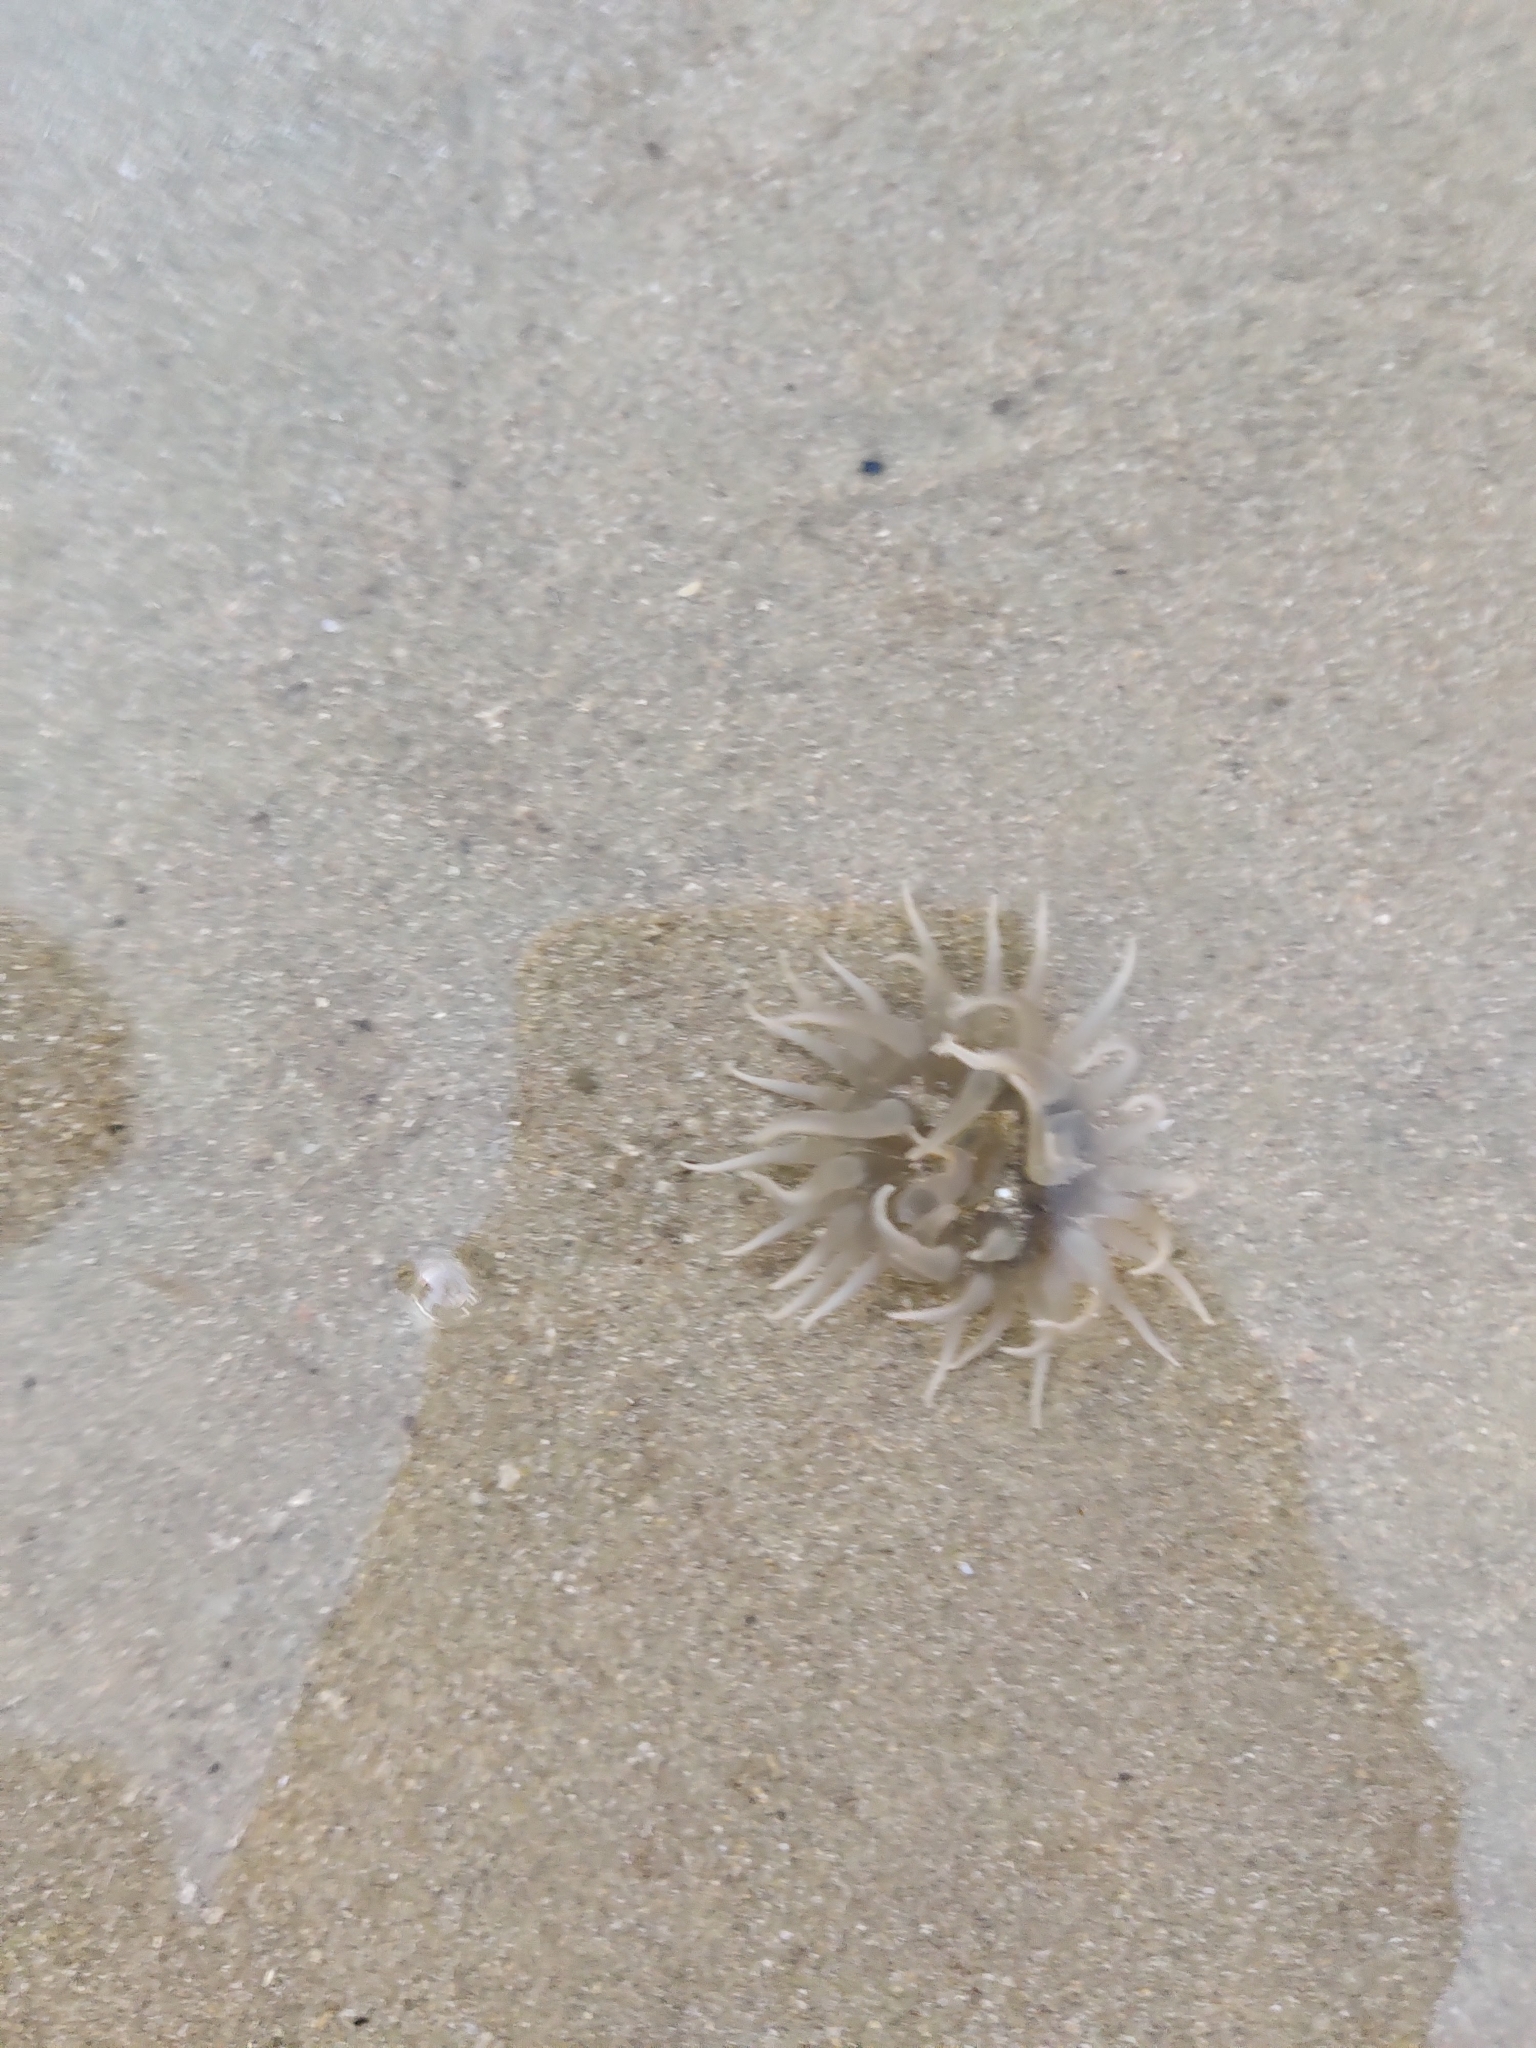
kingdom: Animalia
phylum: Cnidaria
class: Anthozoa
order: Actiniaria
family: Actiniidae
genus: Paracondylactis
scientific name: Paracondylactis sinensis
